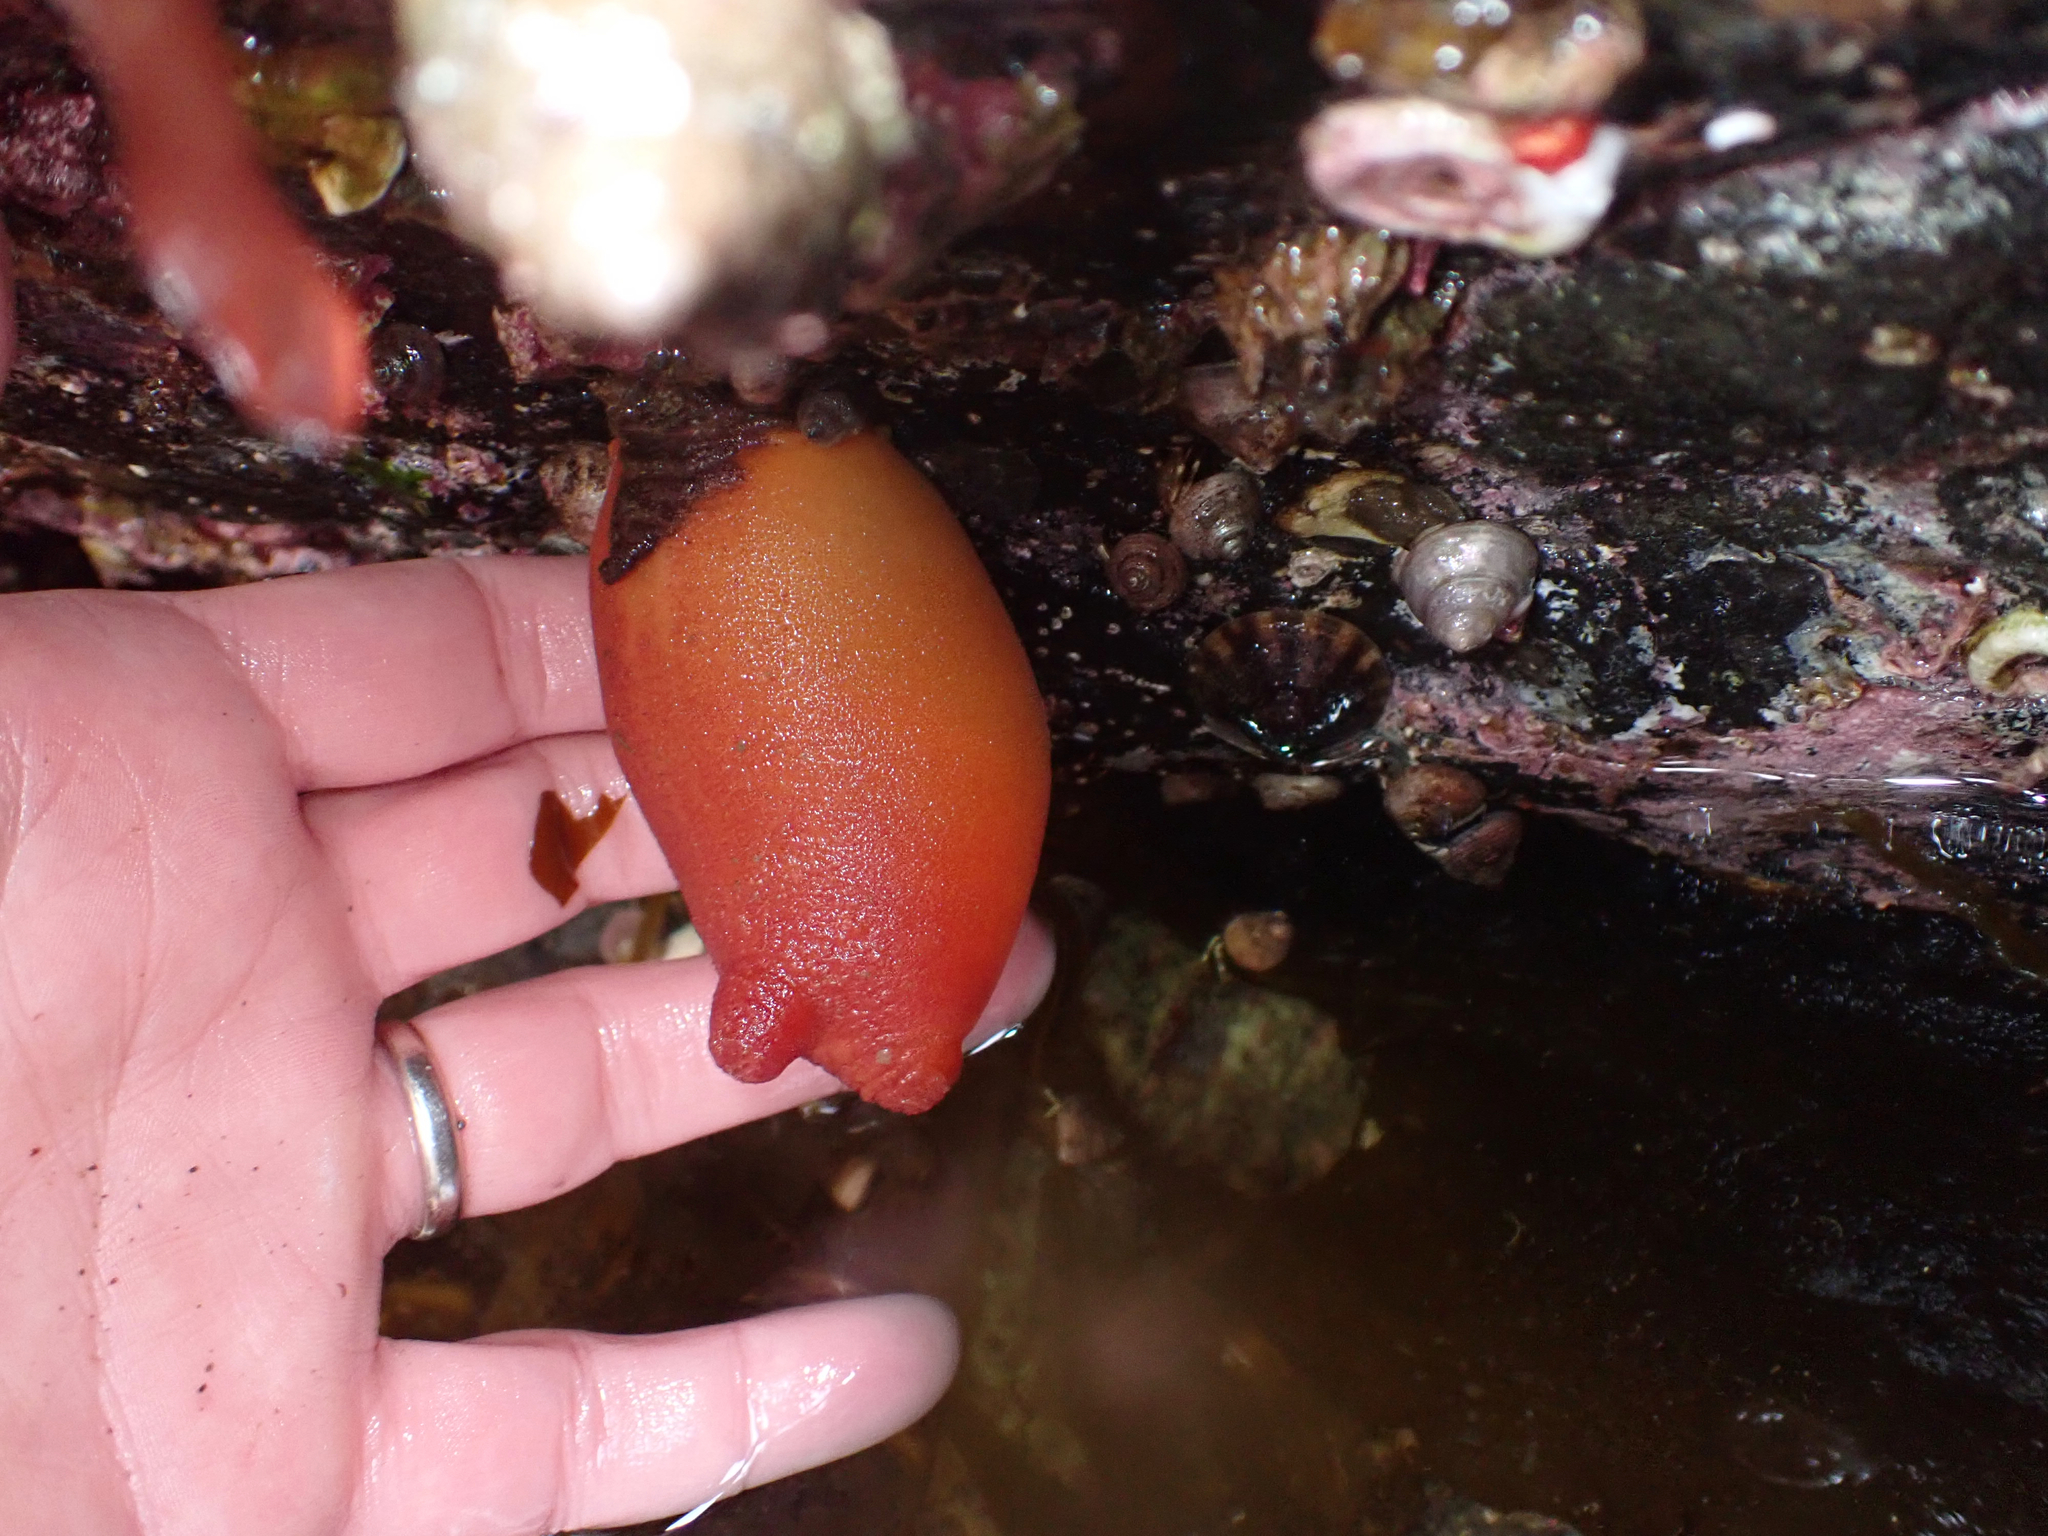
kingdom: Animalia
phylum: Chordata
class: Ascidiacea
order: Stolidobranchia
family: Pyuridae
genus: Halocynthia
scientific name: Halocynthia aurantium
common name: Sea peach
